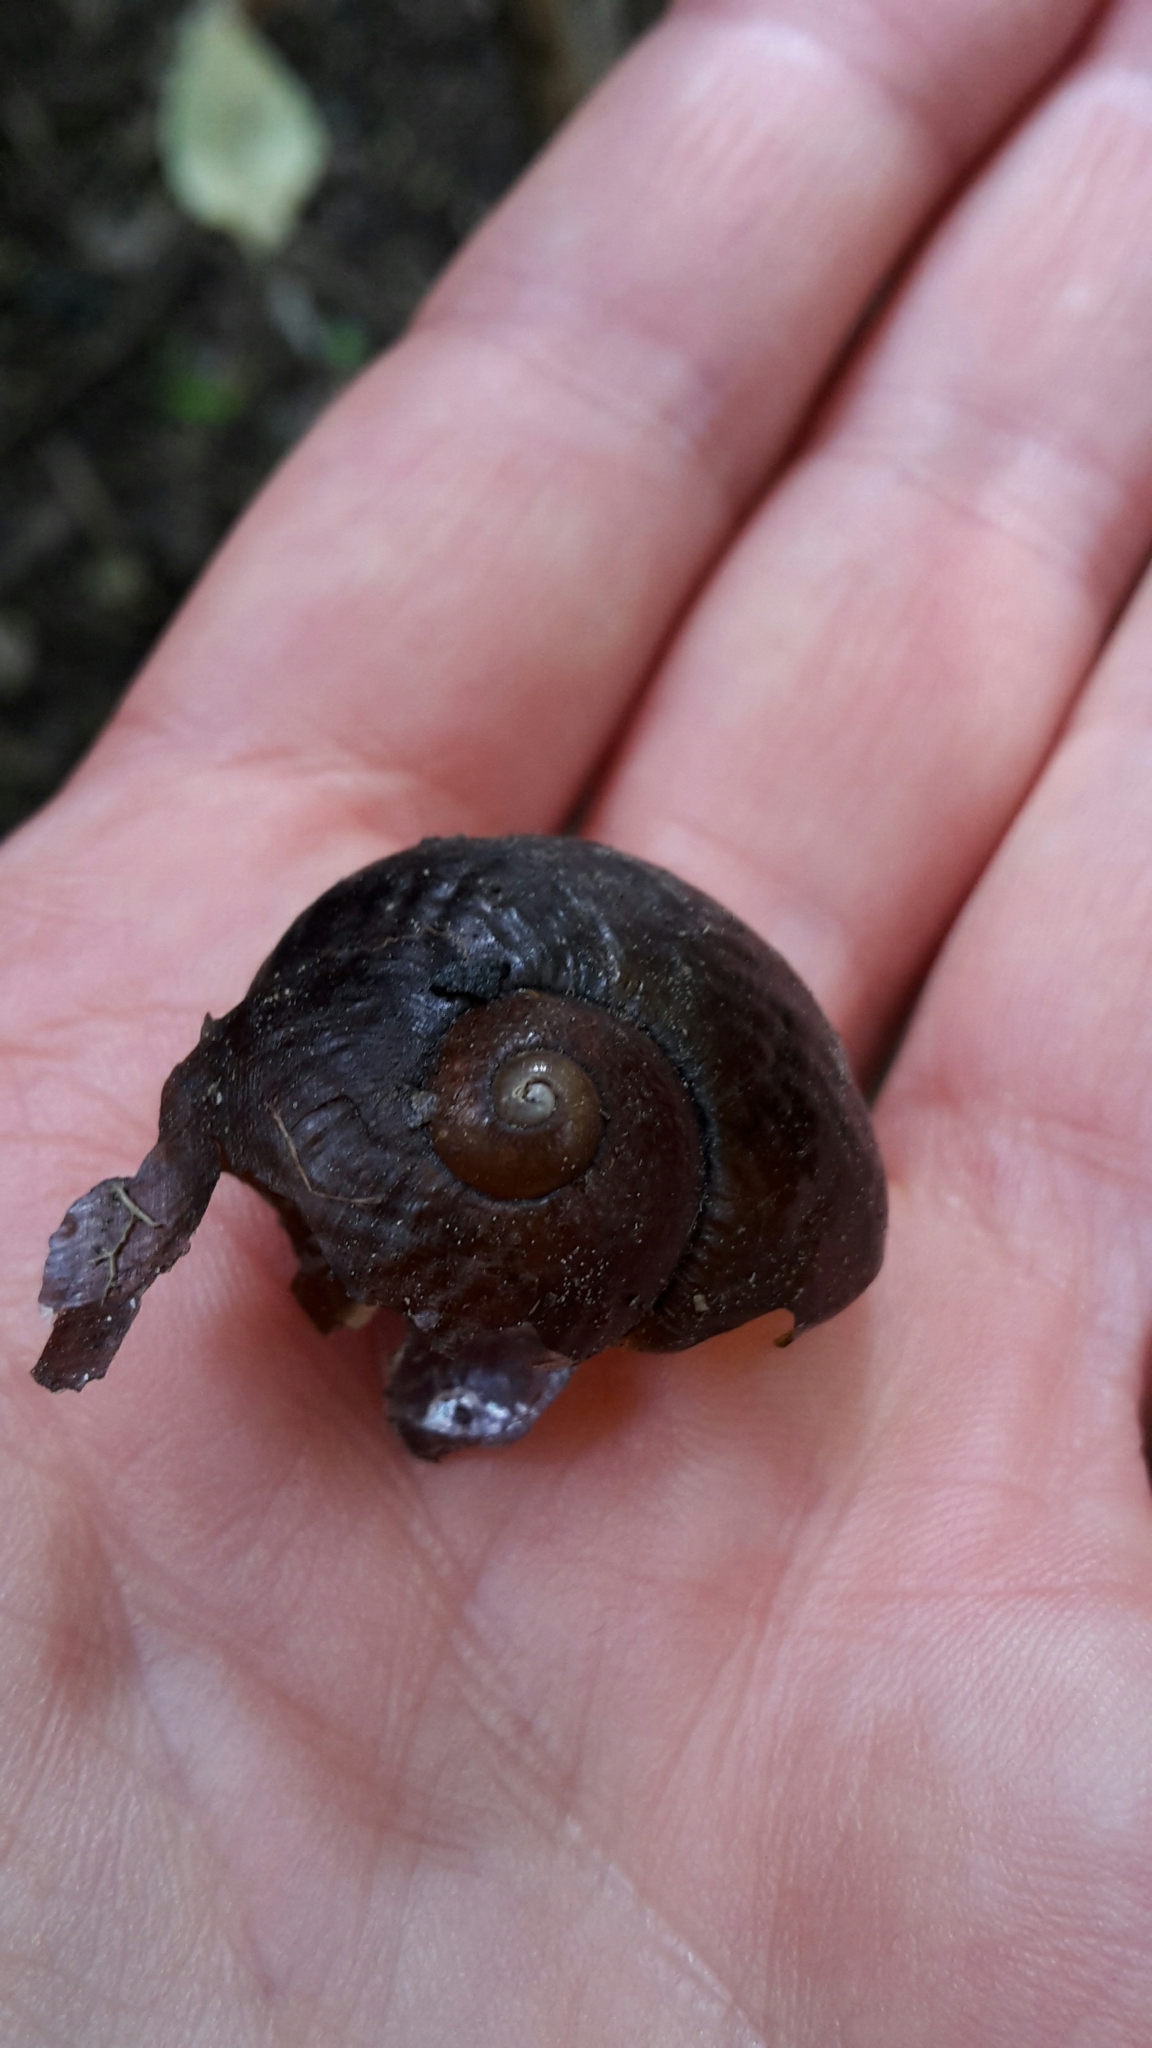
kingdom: Animalia
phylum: Mollusca
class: Gastropoda
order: Stylommatophora
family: Rhytididae
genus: Wainuia
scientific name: Wainuia urnula
